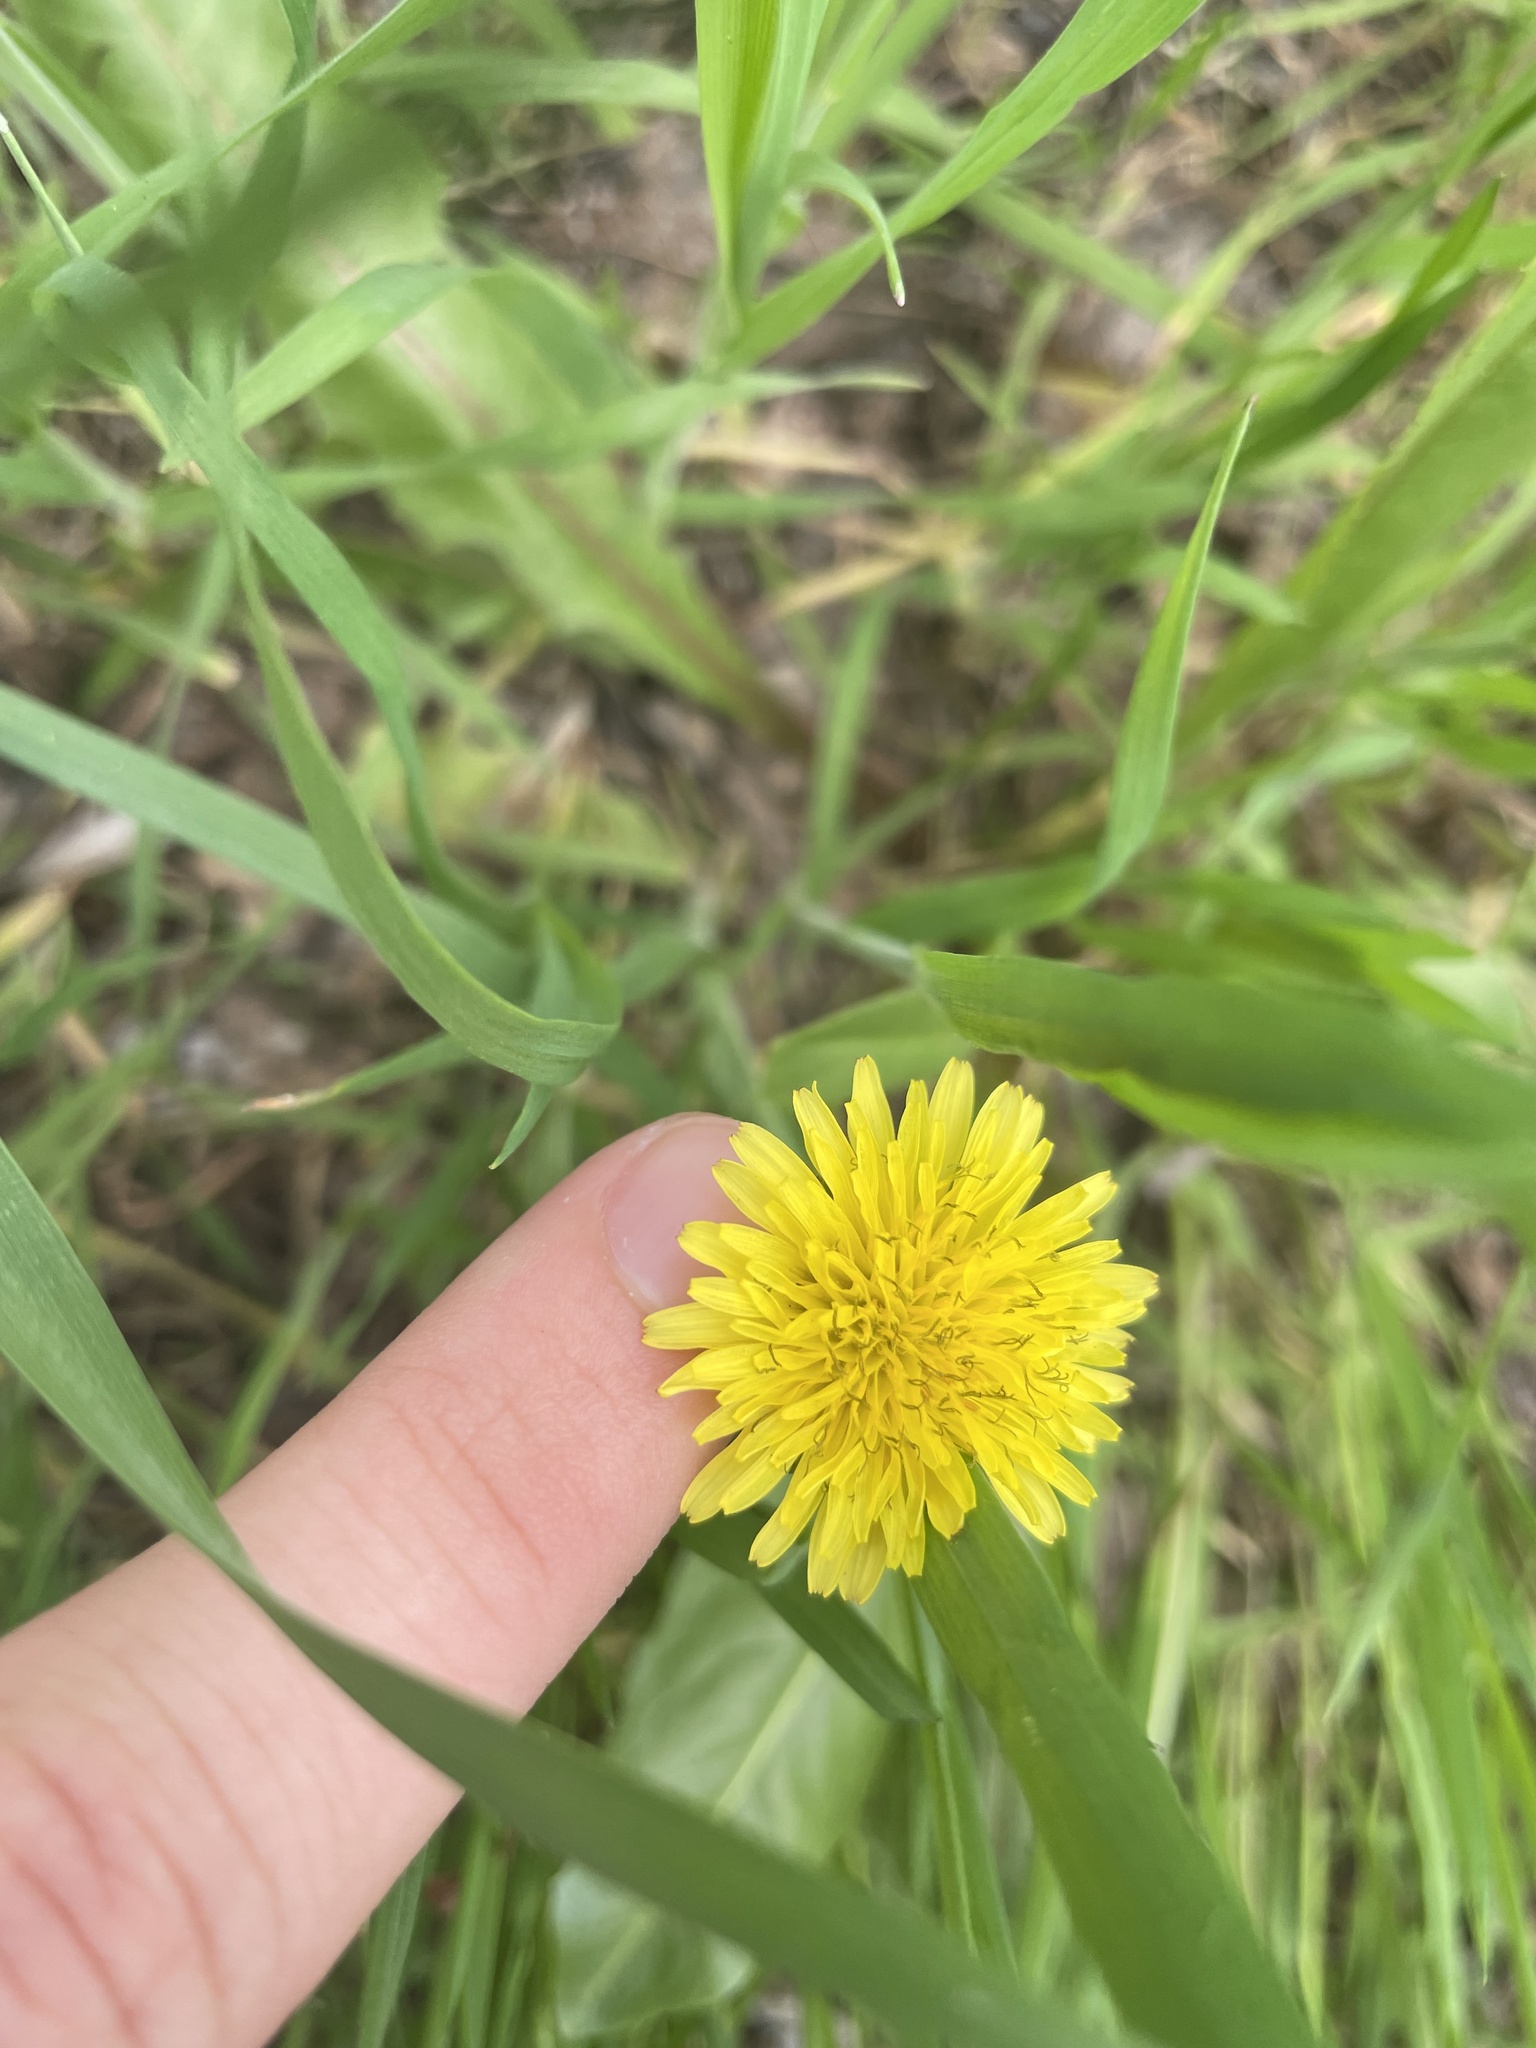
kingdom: Plantae
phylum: Tracheophyta
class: Magnoliopsida
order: Asterales
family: Asteraceae
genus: Taraxacum
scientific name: Taraxacum officinale
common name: Common dandelion
